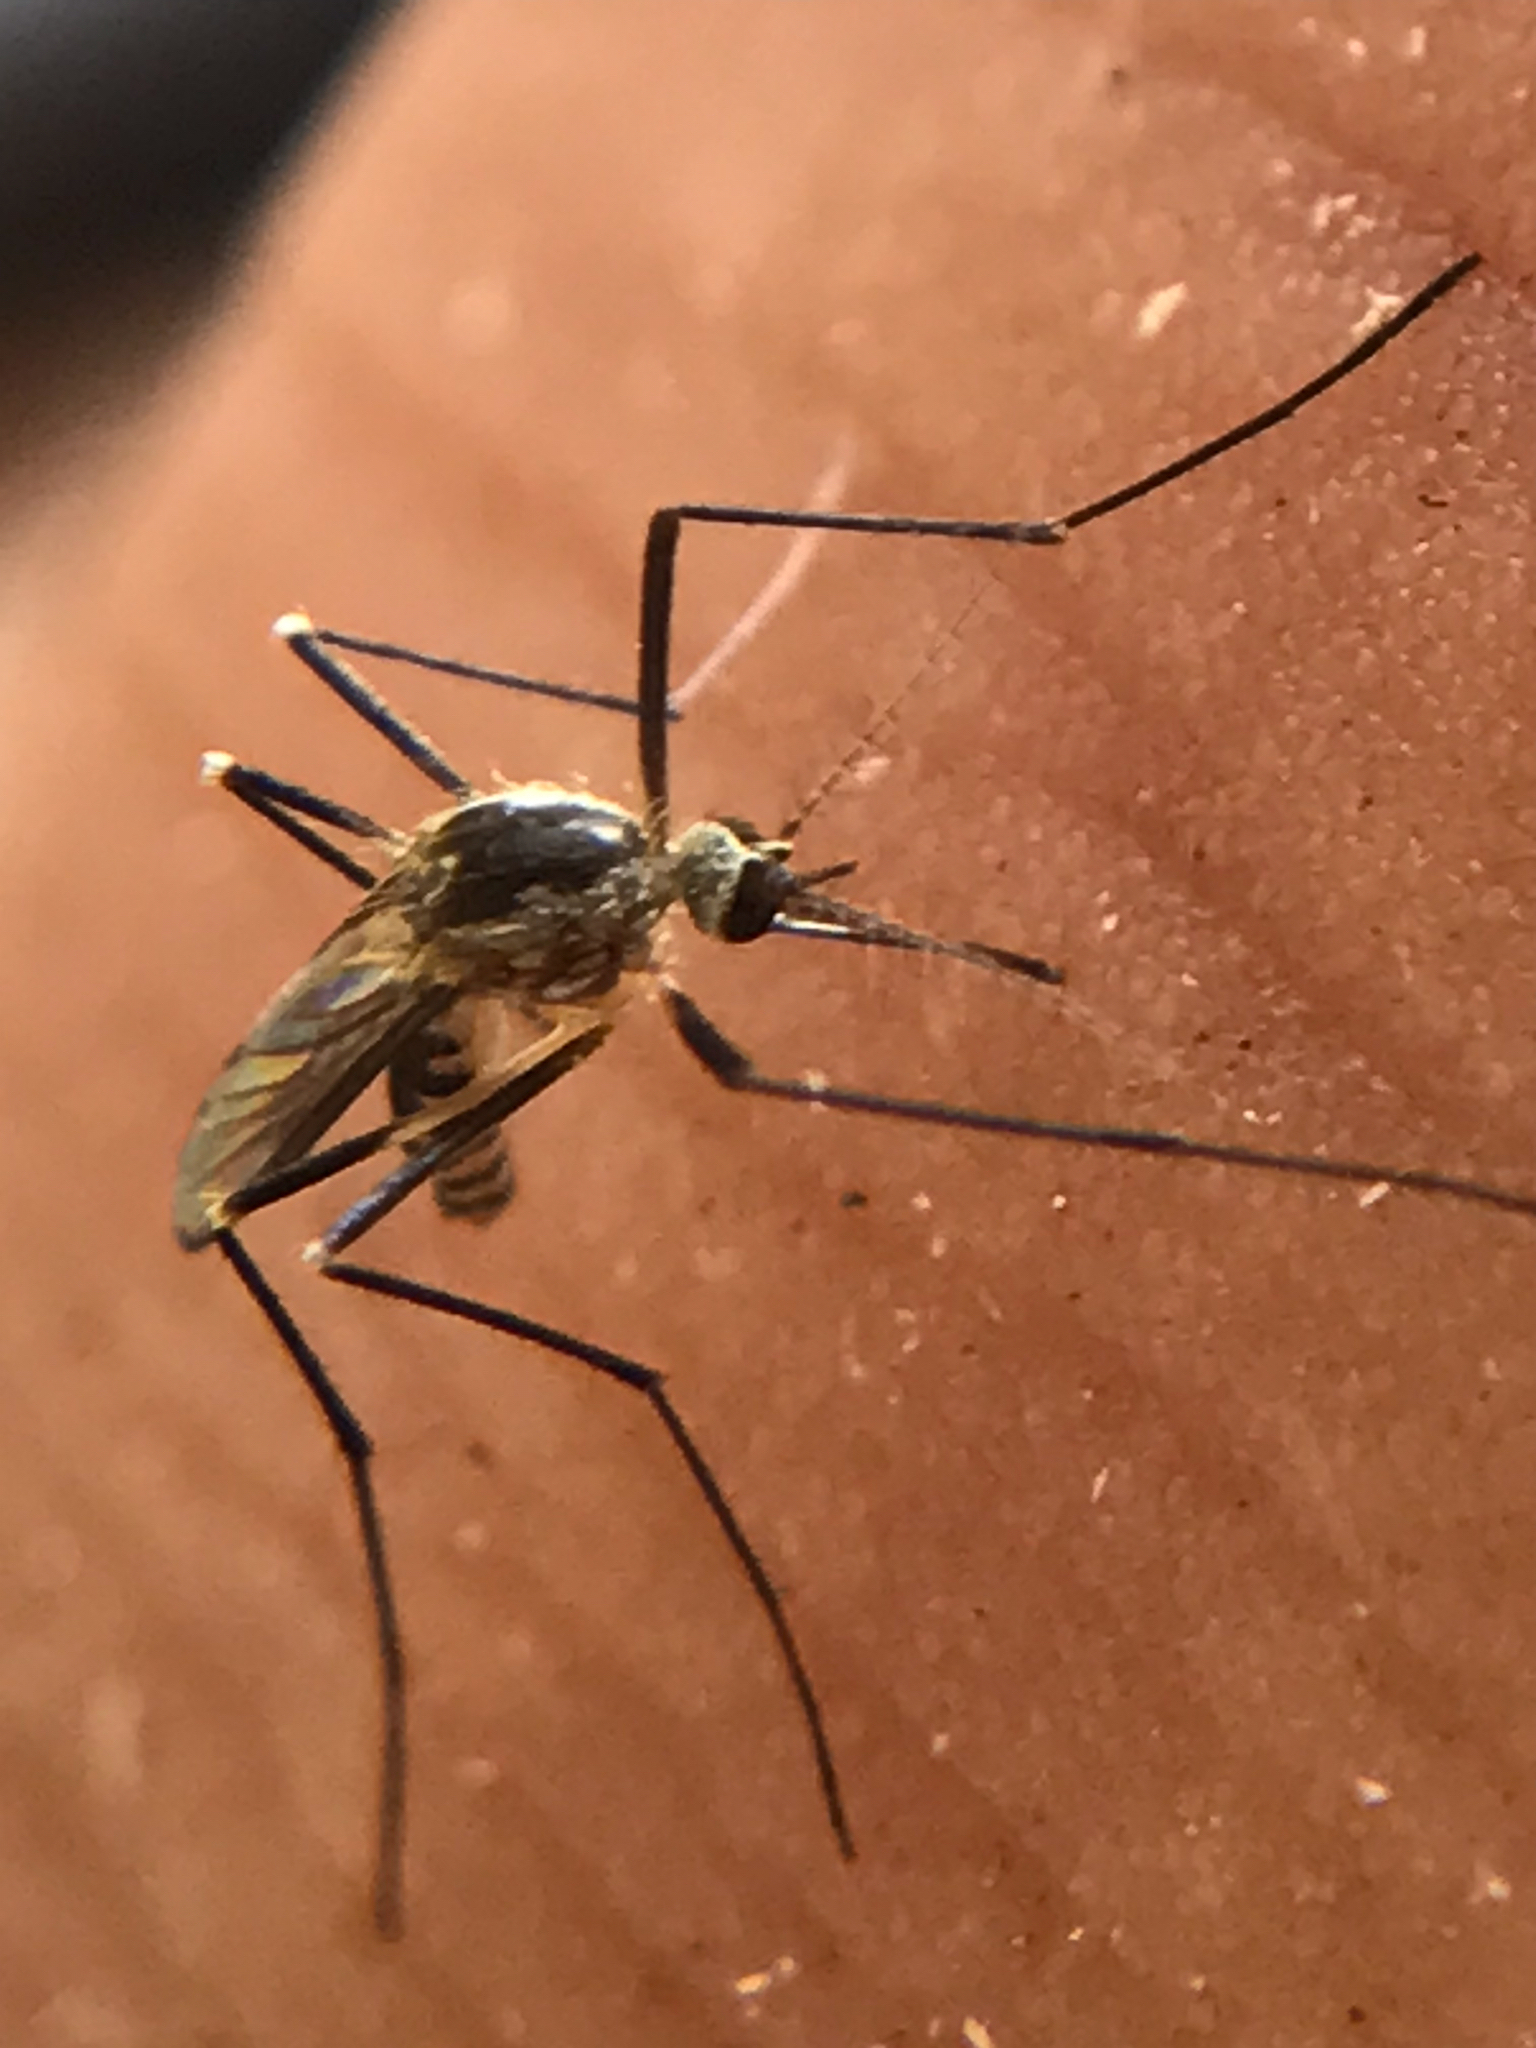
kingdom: Animalia
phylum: Arthropoda
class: Insecta
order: Diptera
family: Culicidae
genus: Aedes
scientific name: Aedes triseriatus
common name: Eastern treehole mosquito
